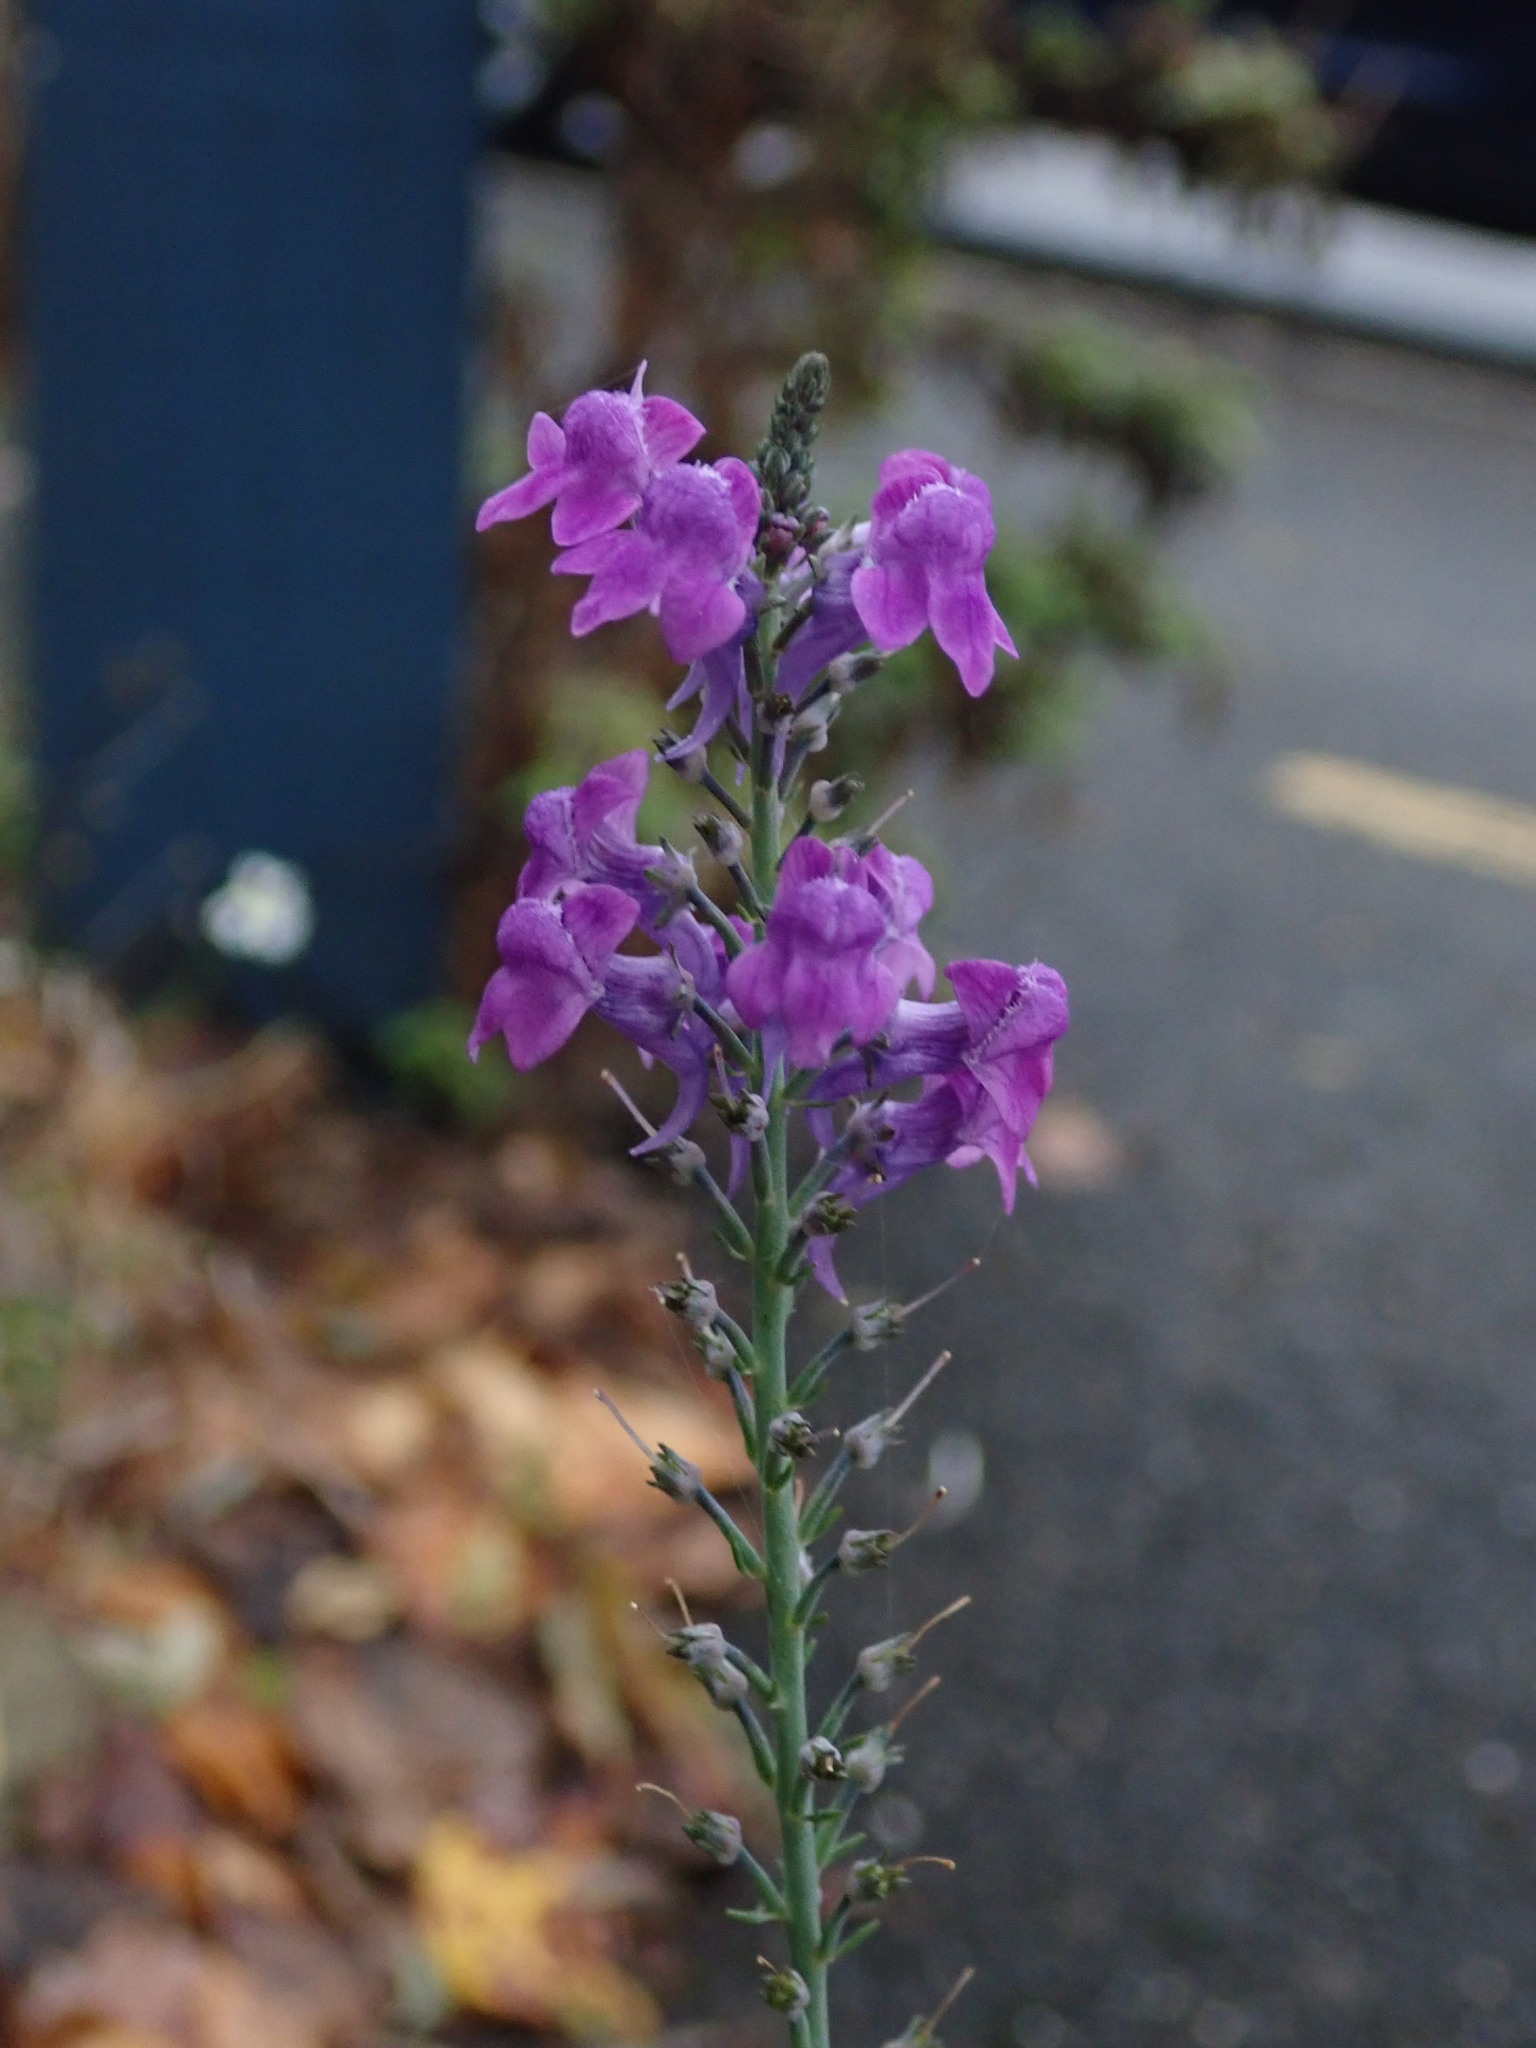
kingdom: Plantae
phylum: Tracheophyta
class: Magnoliopsida
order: Lamiales
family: Plantaginaceae
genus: Linaria
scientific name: Linaria purpurea
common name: Purple toadflax
